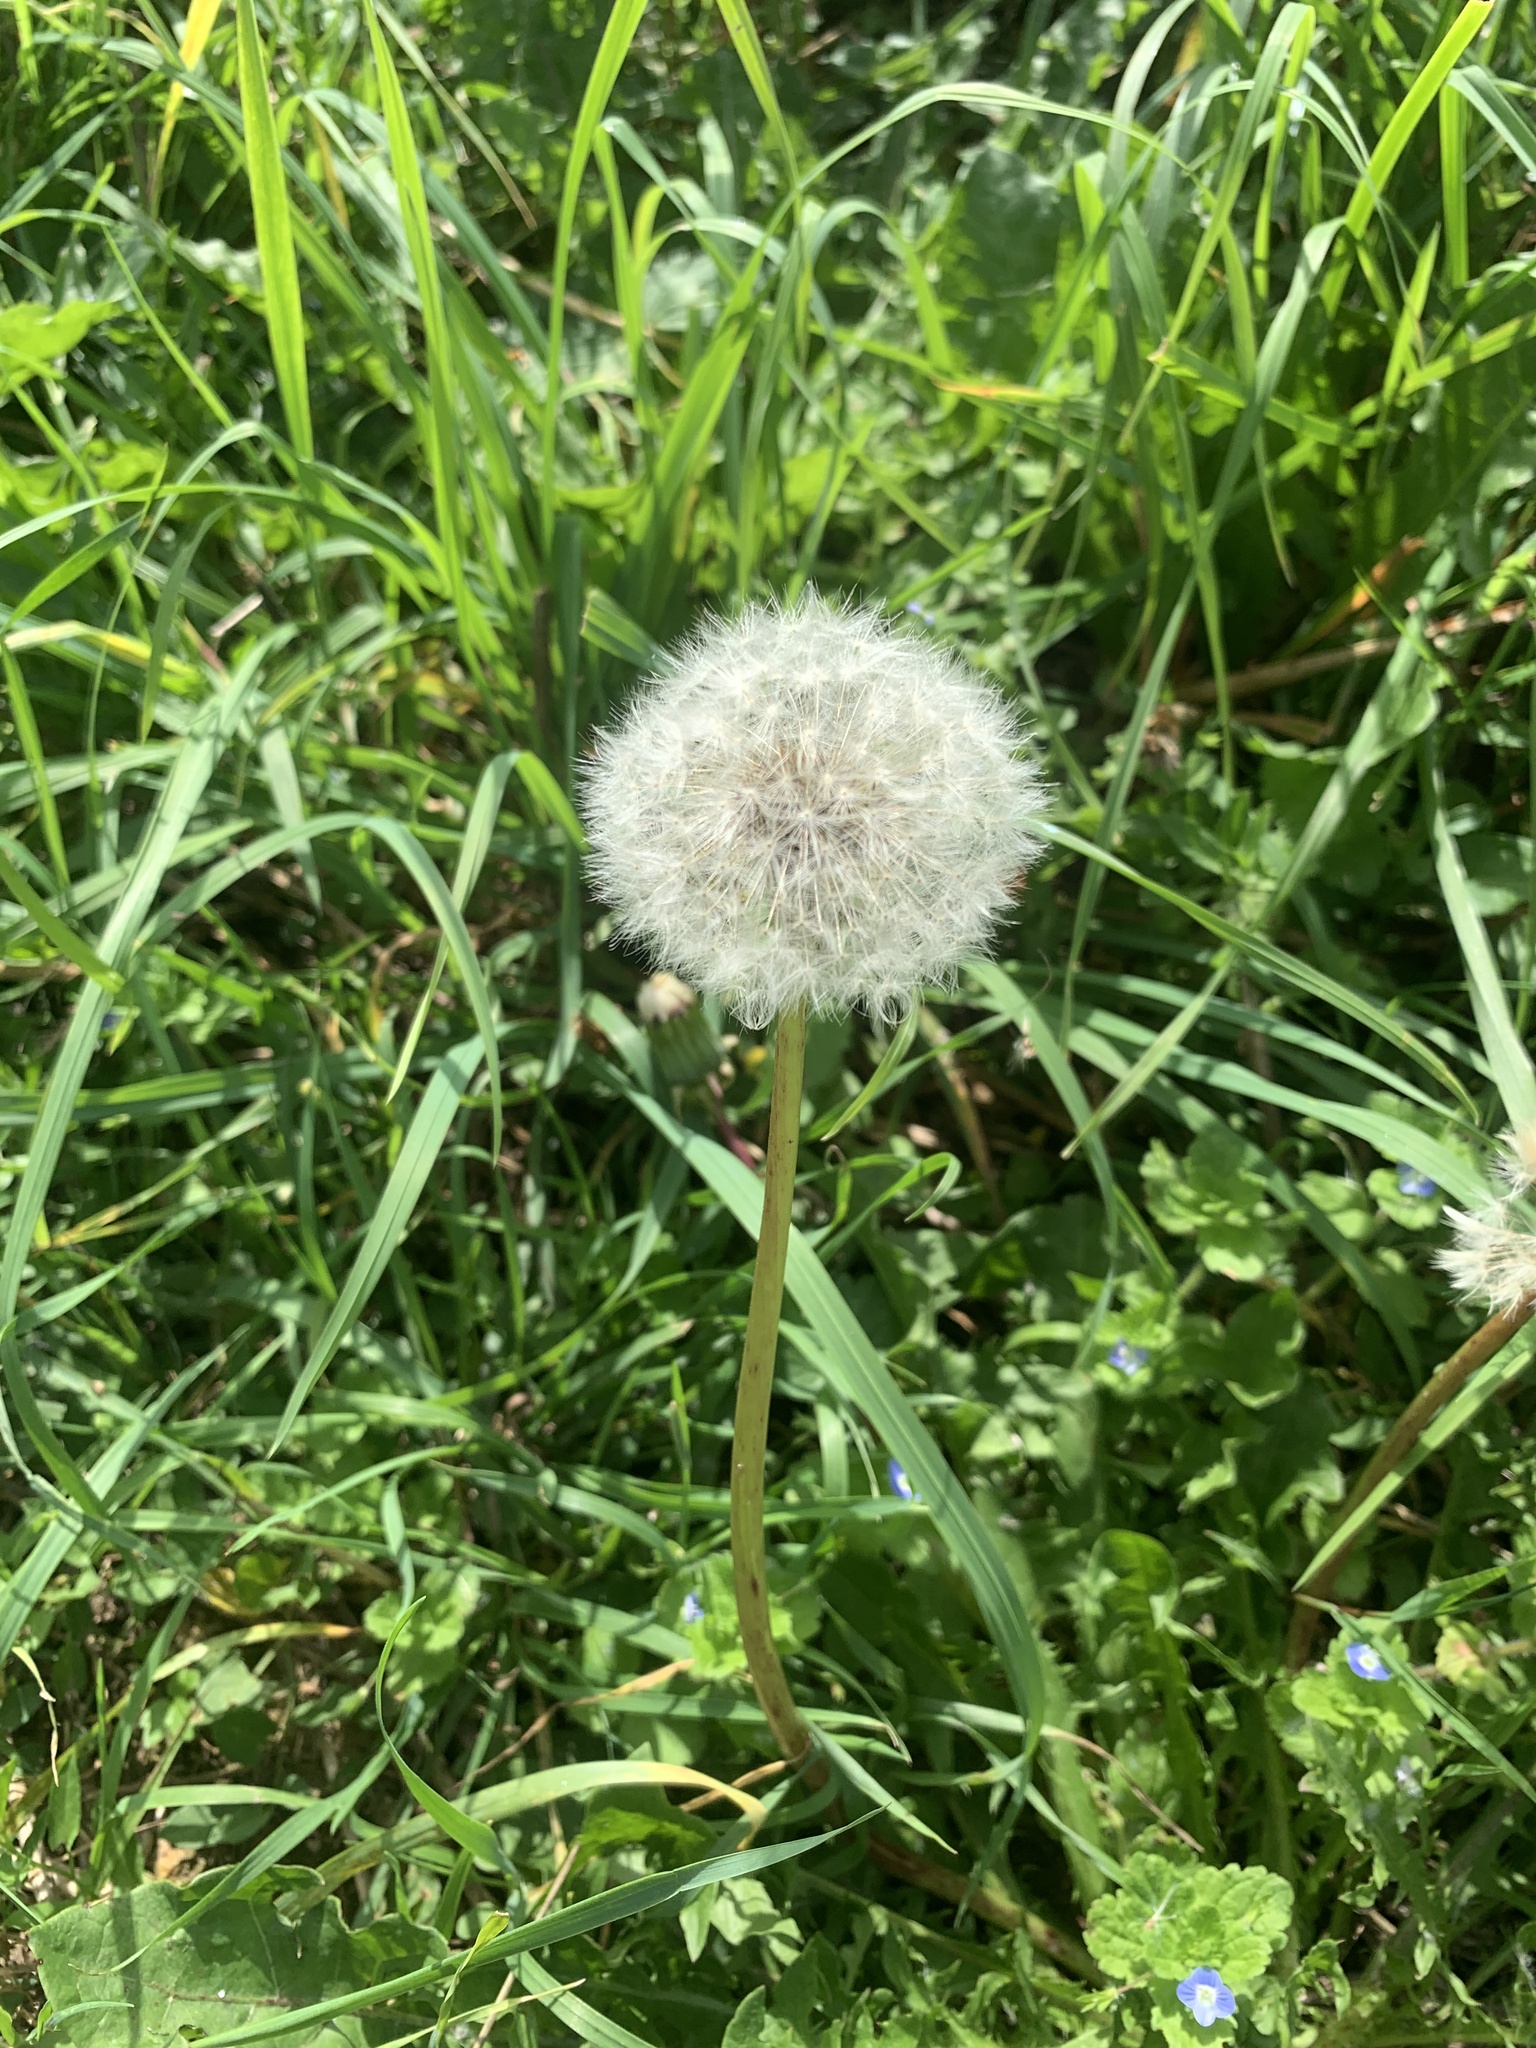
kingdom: Plantae
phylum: Tracheophyta
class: Magnoliopsida
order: Asterales
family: Asteraceae
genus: Taraxacum
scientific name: Taraxacum officinale
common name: Common dandelion
